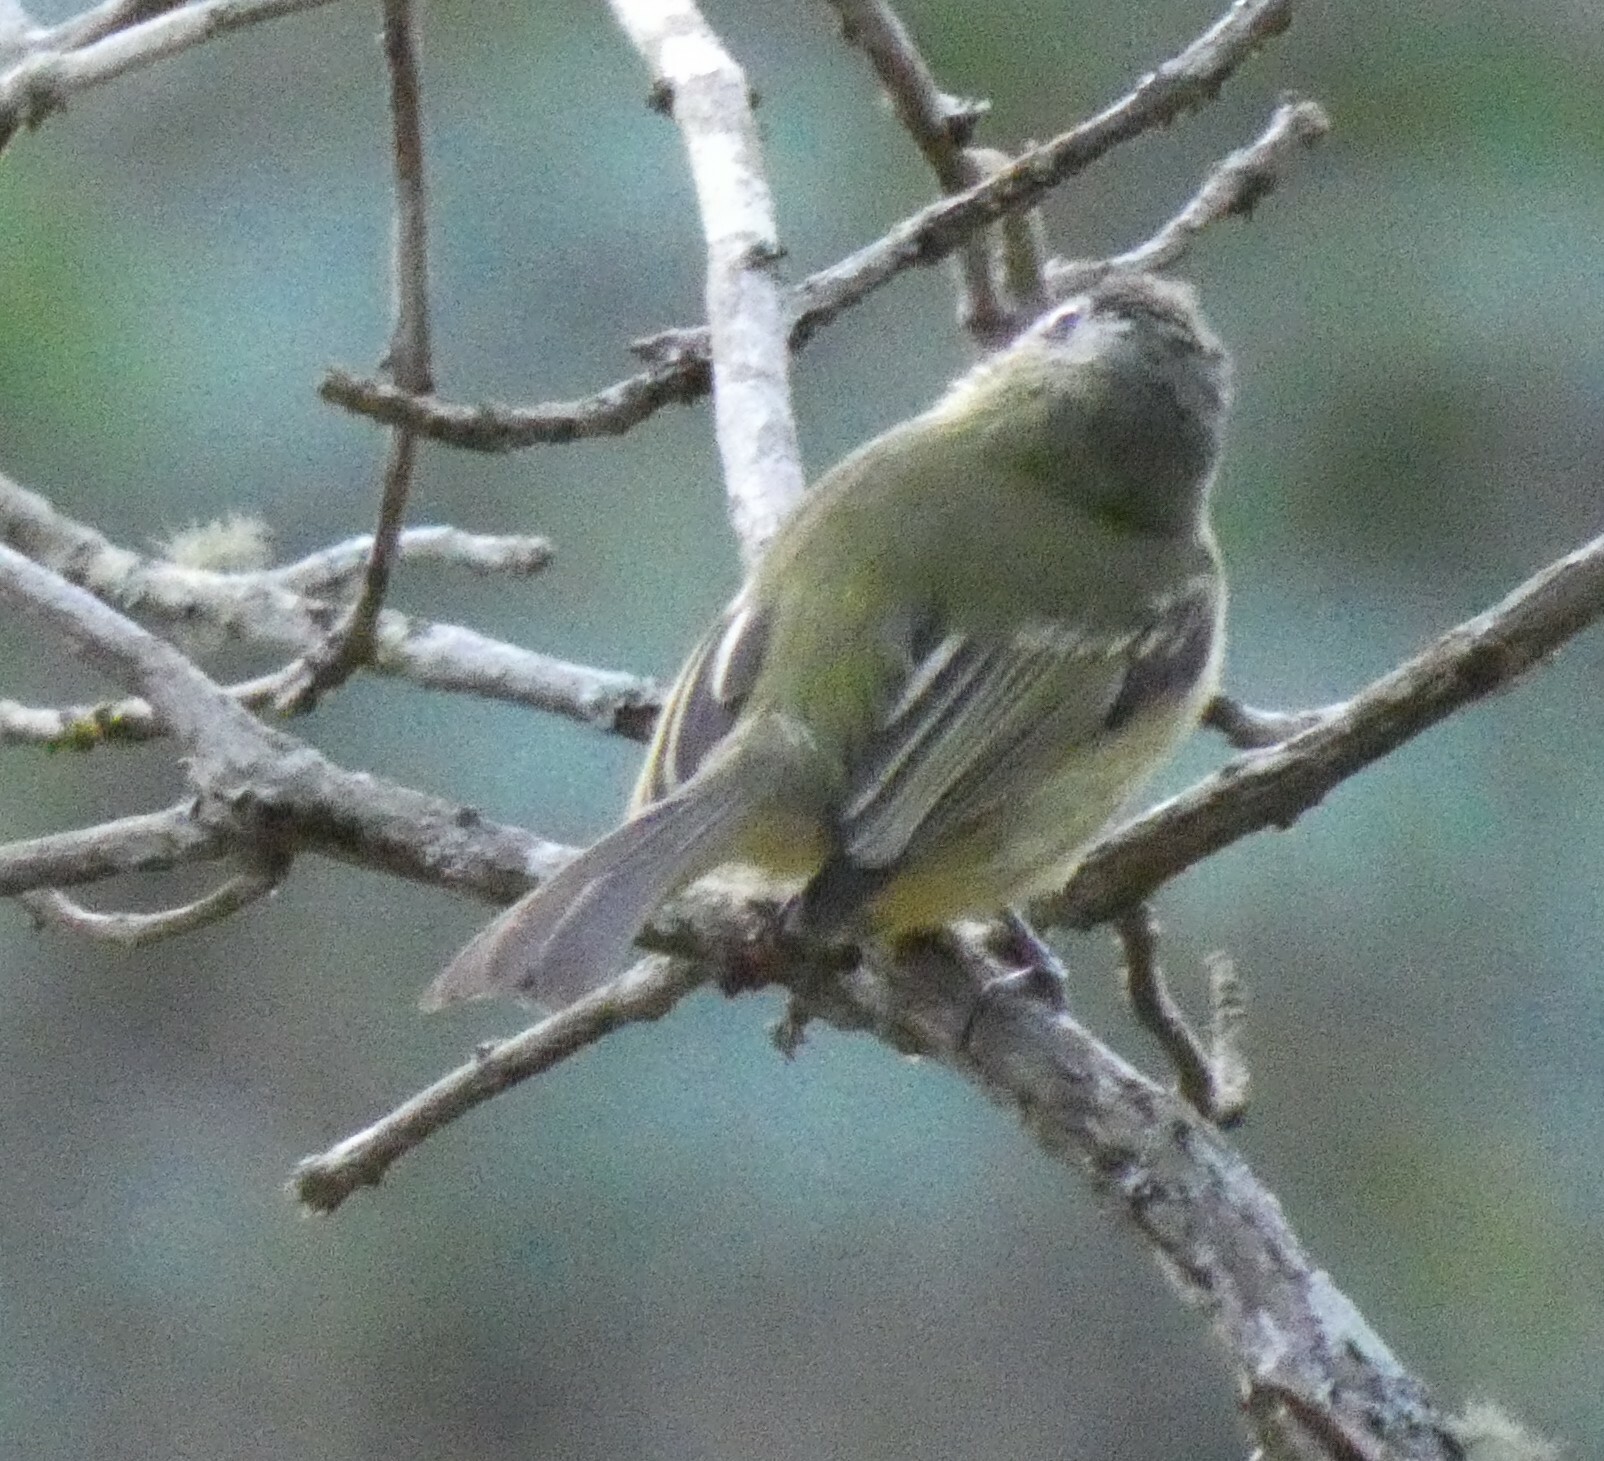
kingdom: Animalia
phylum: Chordata
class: Aves
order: Passeriformes
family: Tyrannidae
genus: Tolmomyias
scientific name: Tolmomyias sulphurescens
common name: Yellow-olive flycatcher
